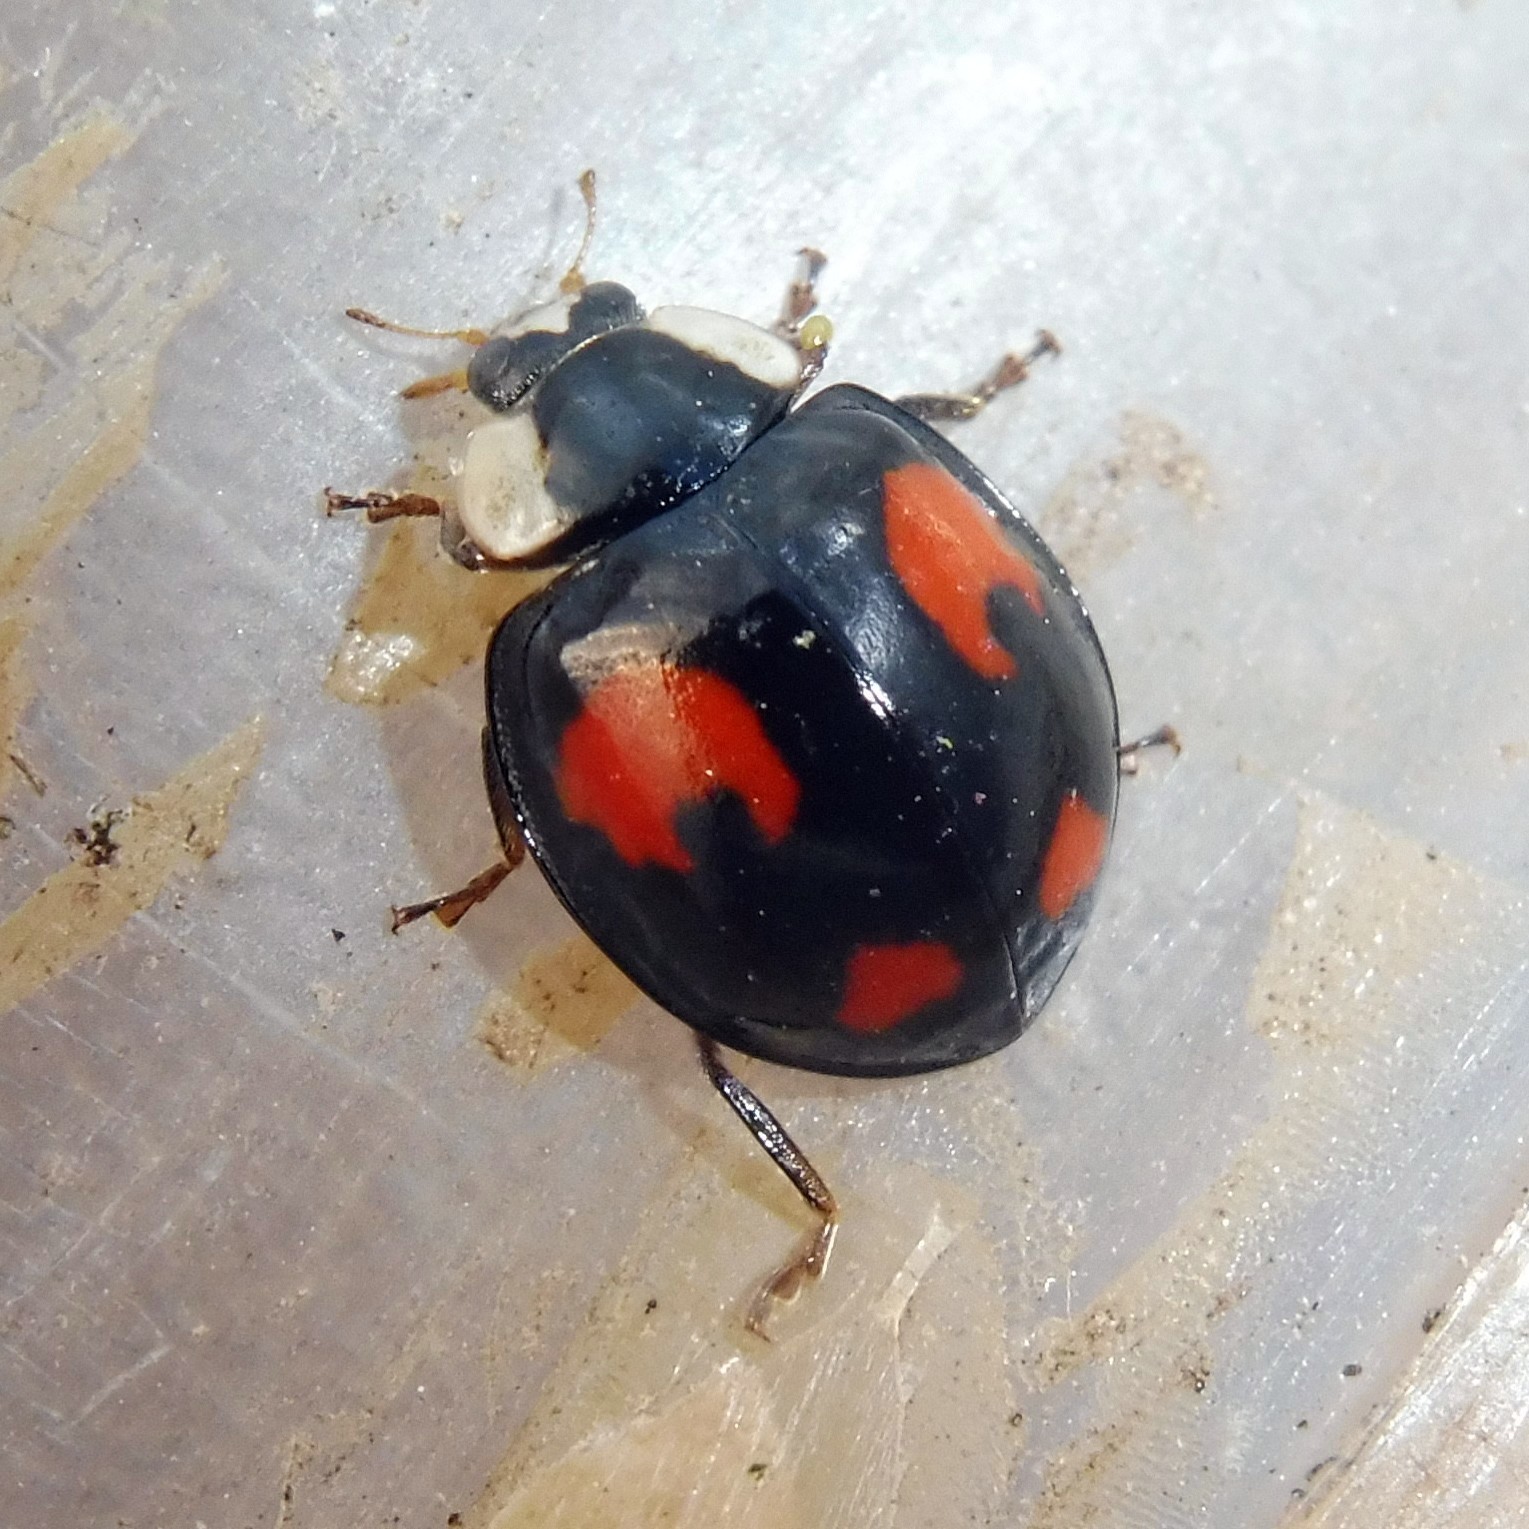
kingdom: Animalia
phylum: Arthropoda
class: Insecta
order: Coleoptera
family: Coccinellidae
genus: Harmonia
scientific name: Harmonia axyridis
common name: Harlequin ladybird
